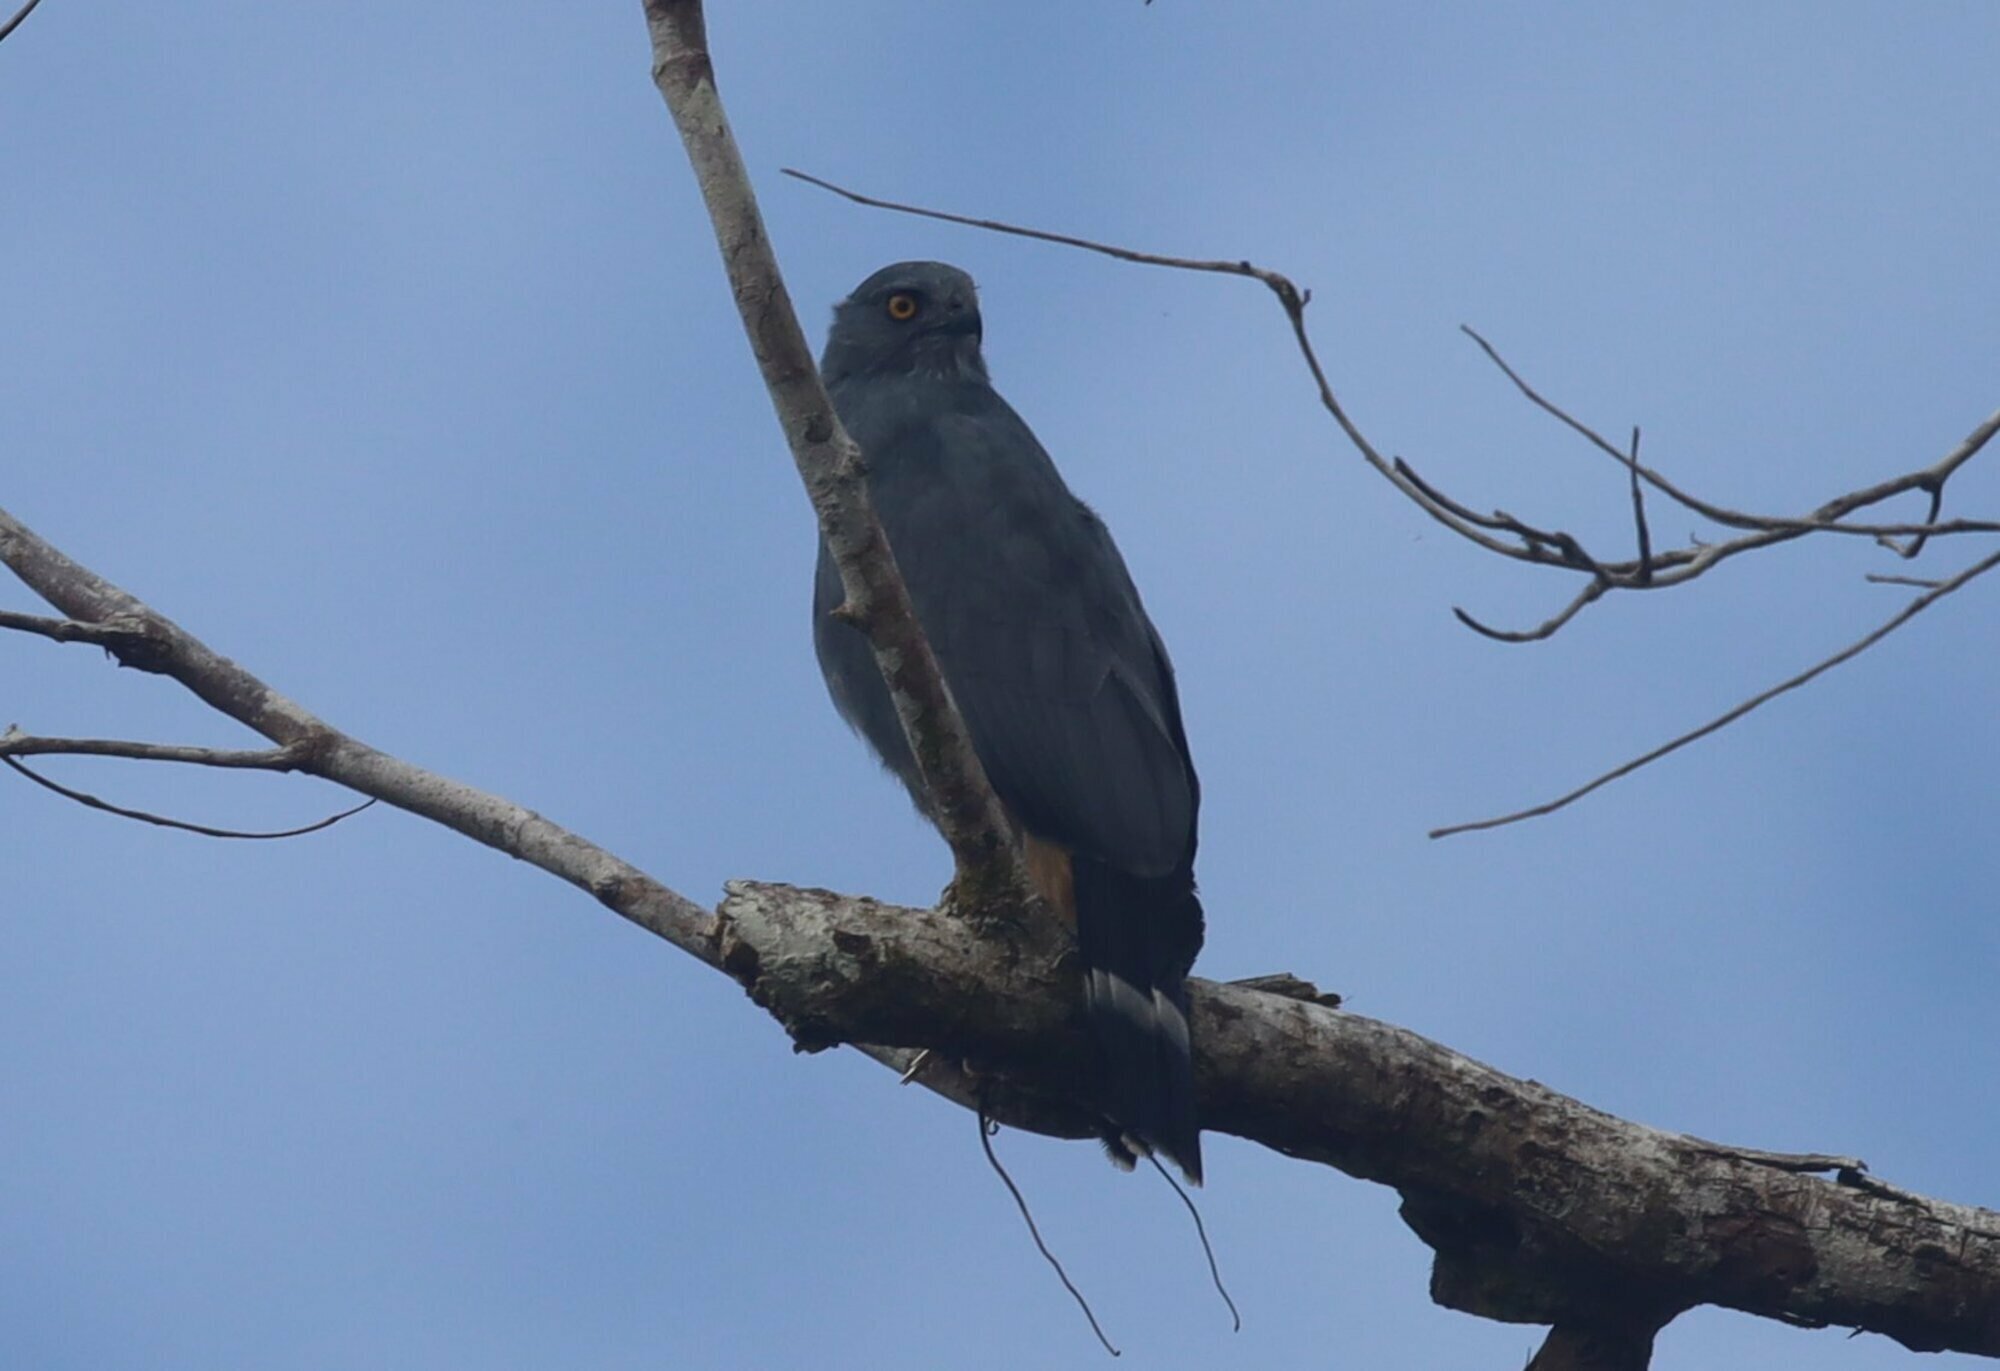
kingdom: Animalia
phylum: Chordata
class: Aves
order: Accipitriformes
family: Accipitridae
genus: Geranospiza
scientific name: Geranospiza caerulescens
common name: Crane hawk
